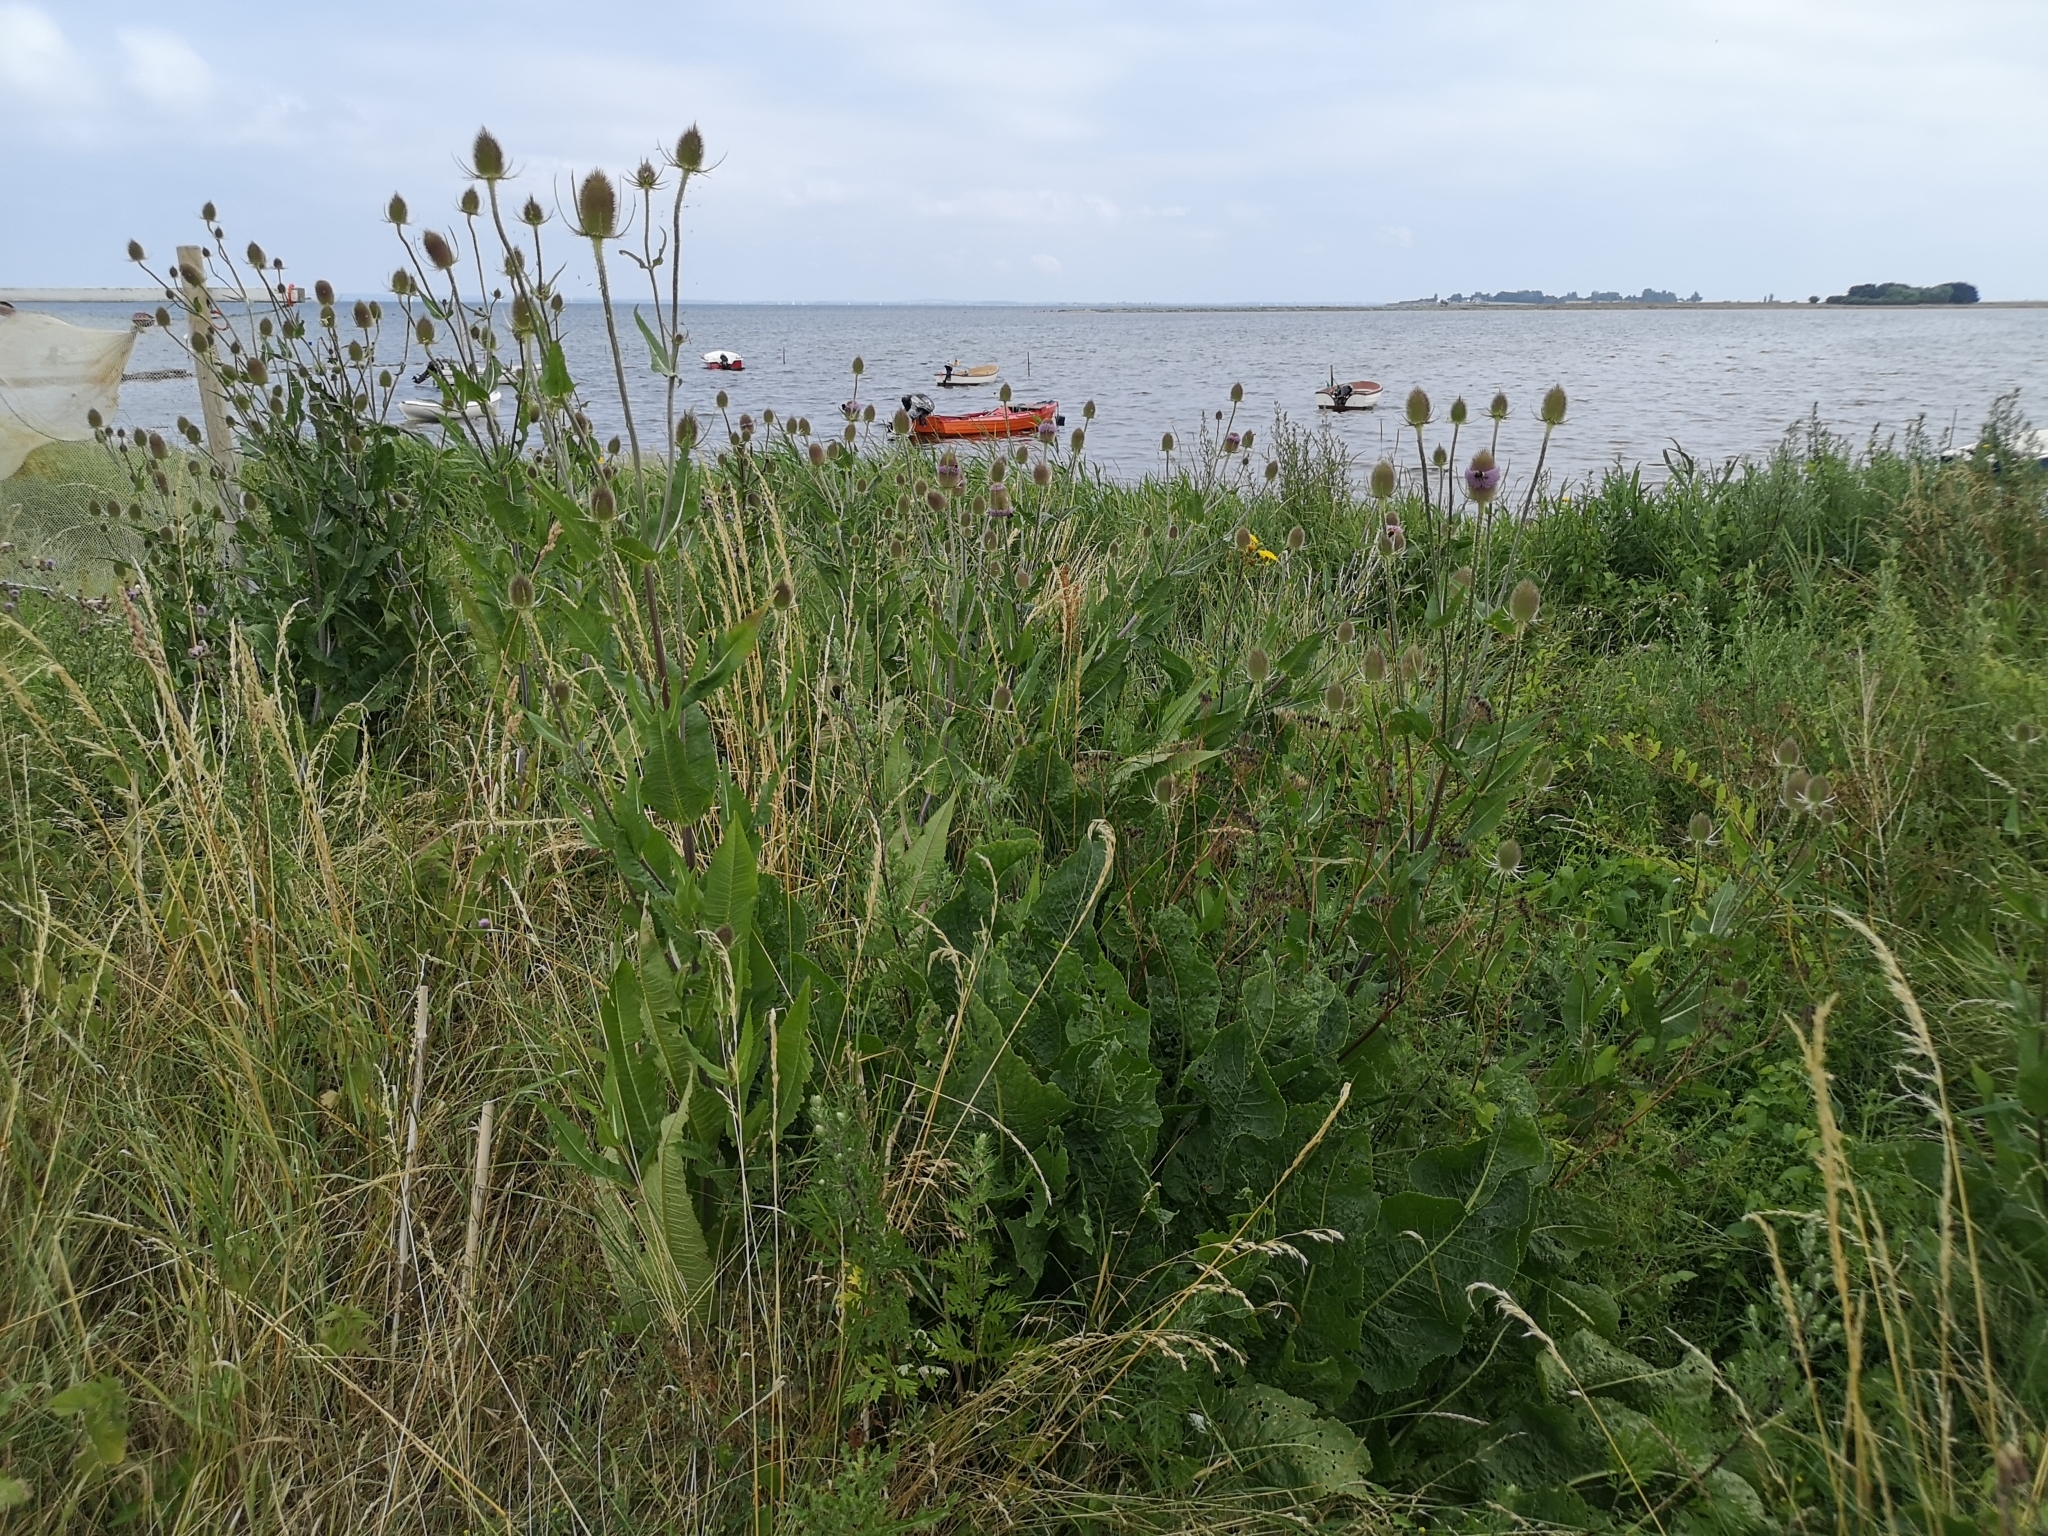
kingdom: Plantae
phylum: Tracheophyta
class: Magnoliopsida
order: Dipsacales
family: Caprifoliaceae
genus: Dipsacus
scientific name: Dipsacus fullonum
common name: Teasel
